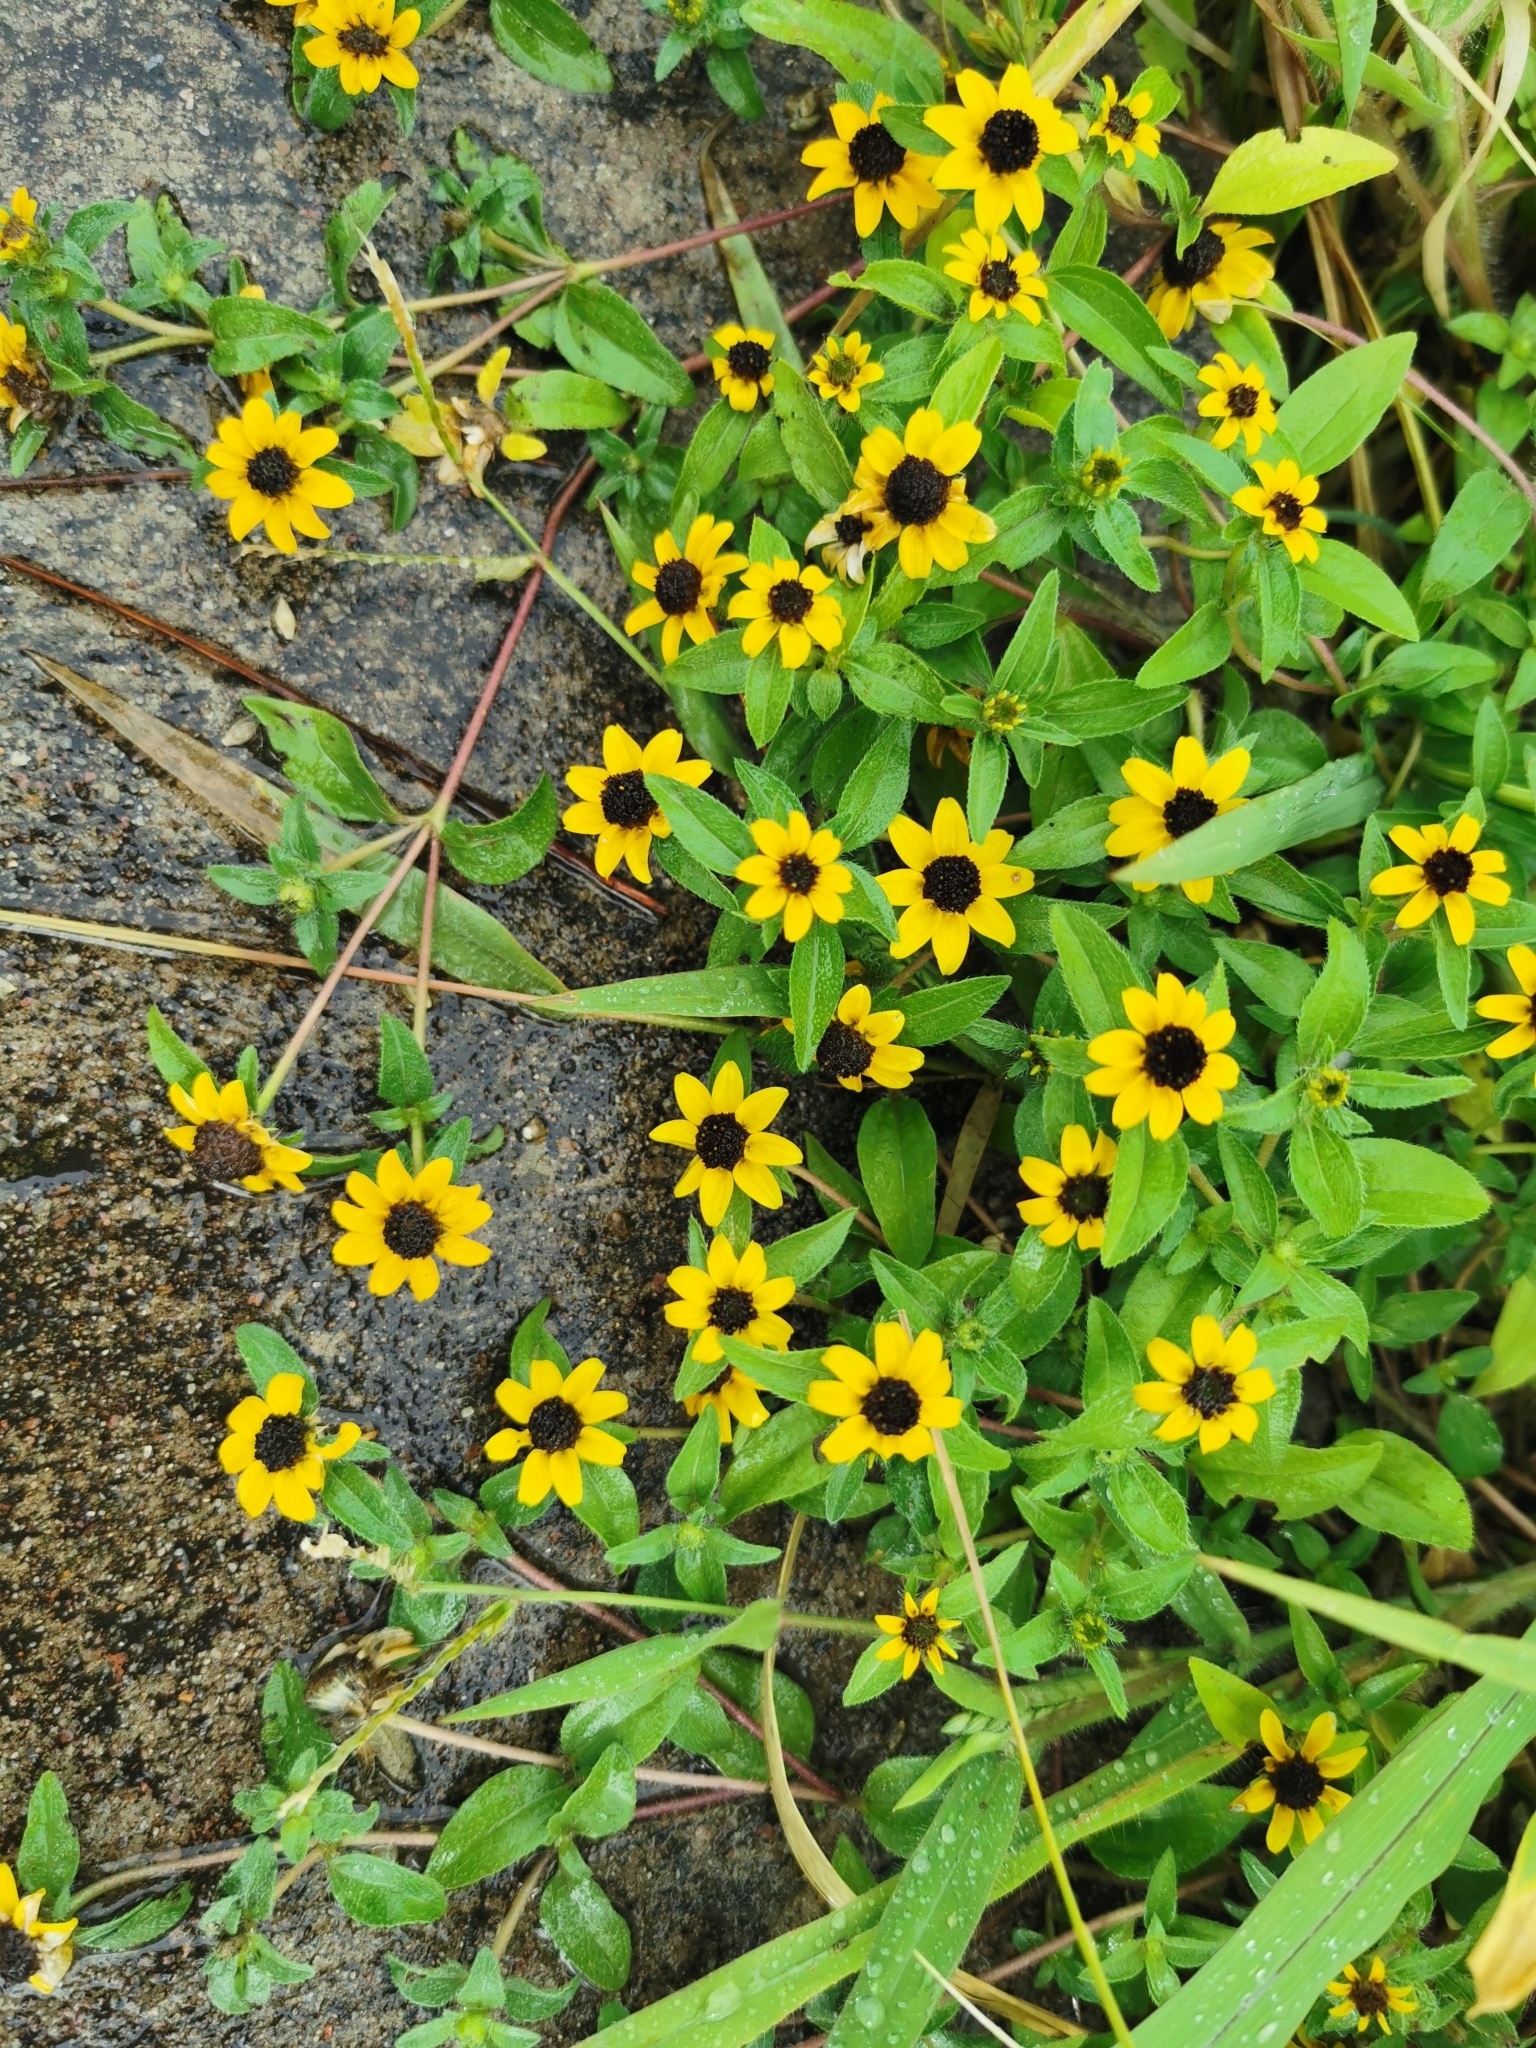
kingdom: Plantae
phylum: Tracheophyta
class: Magnoliopsida
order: Asterales
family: Asteraceae
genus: Sanvitalia
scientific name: Sanvitalia procumbens
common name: Mexican creeping zinnia
